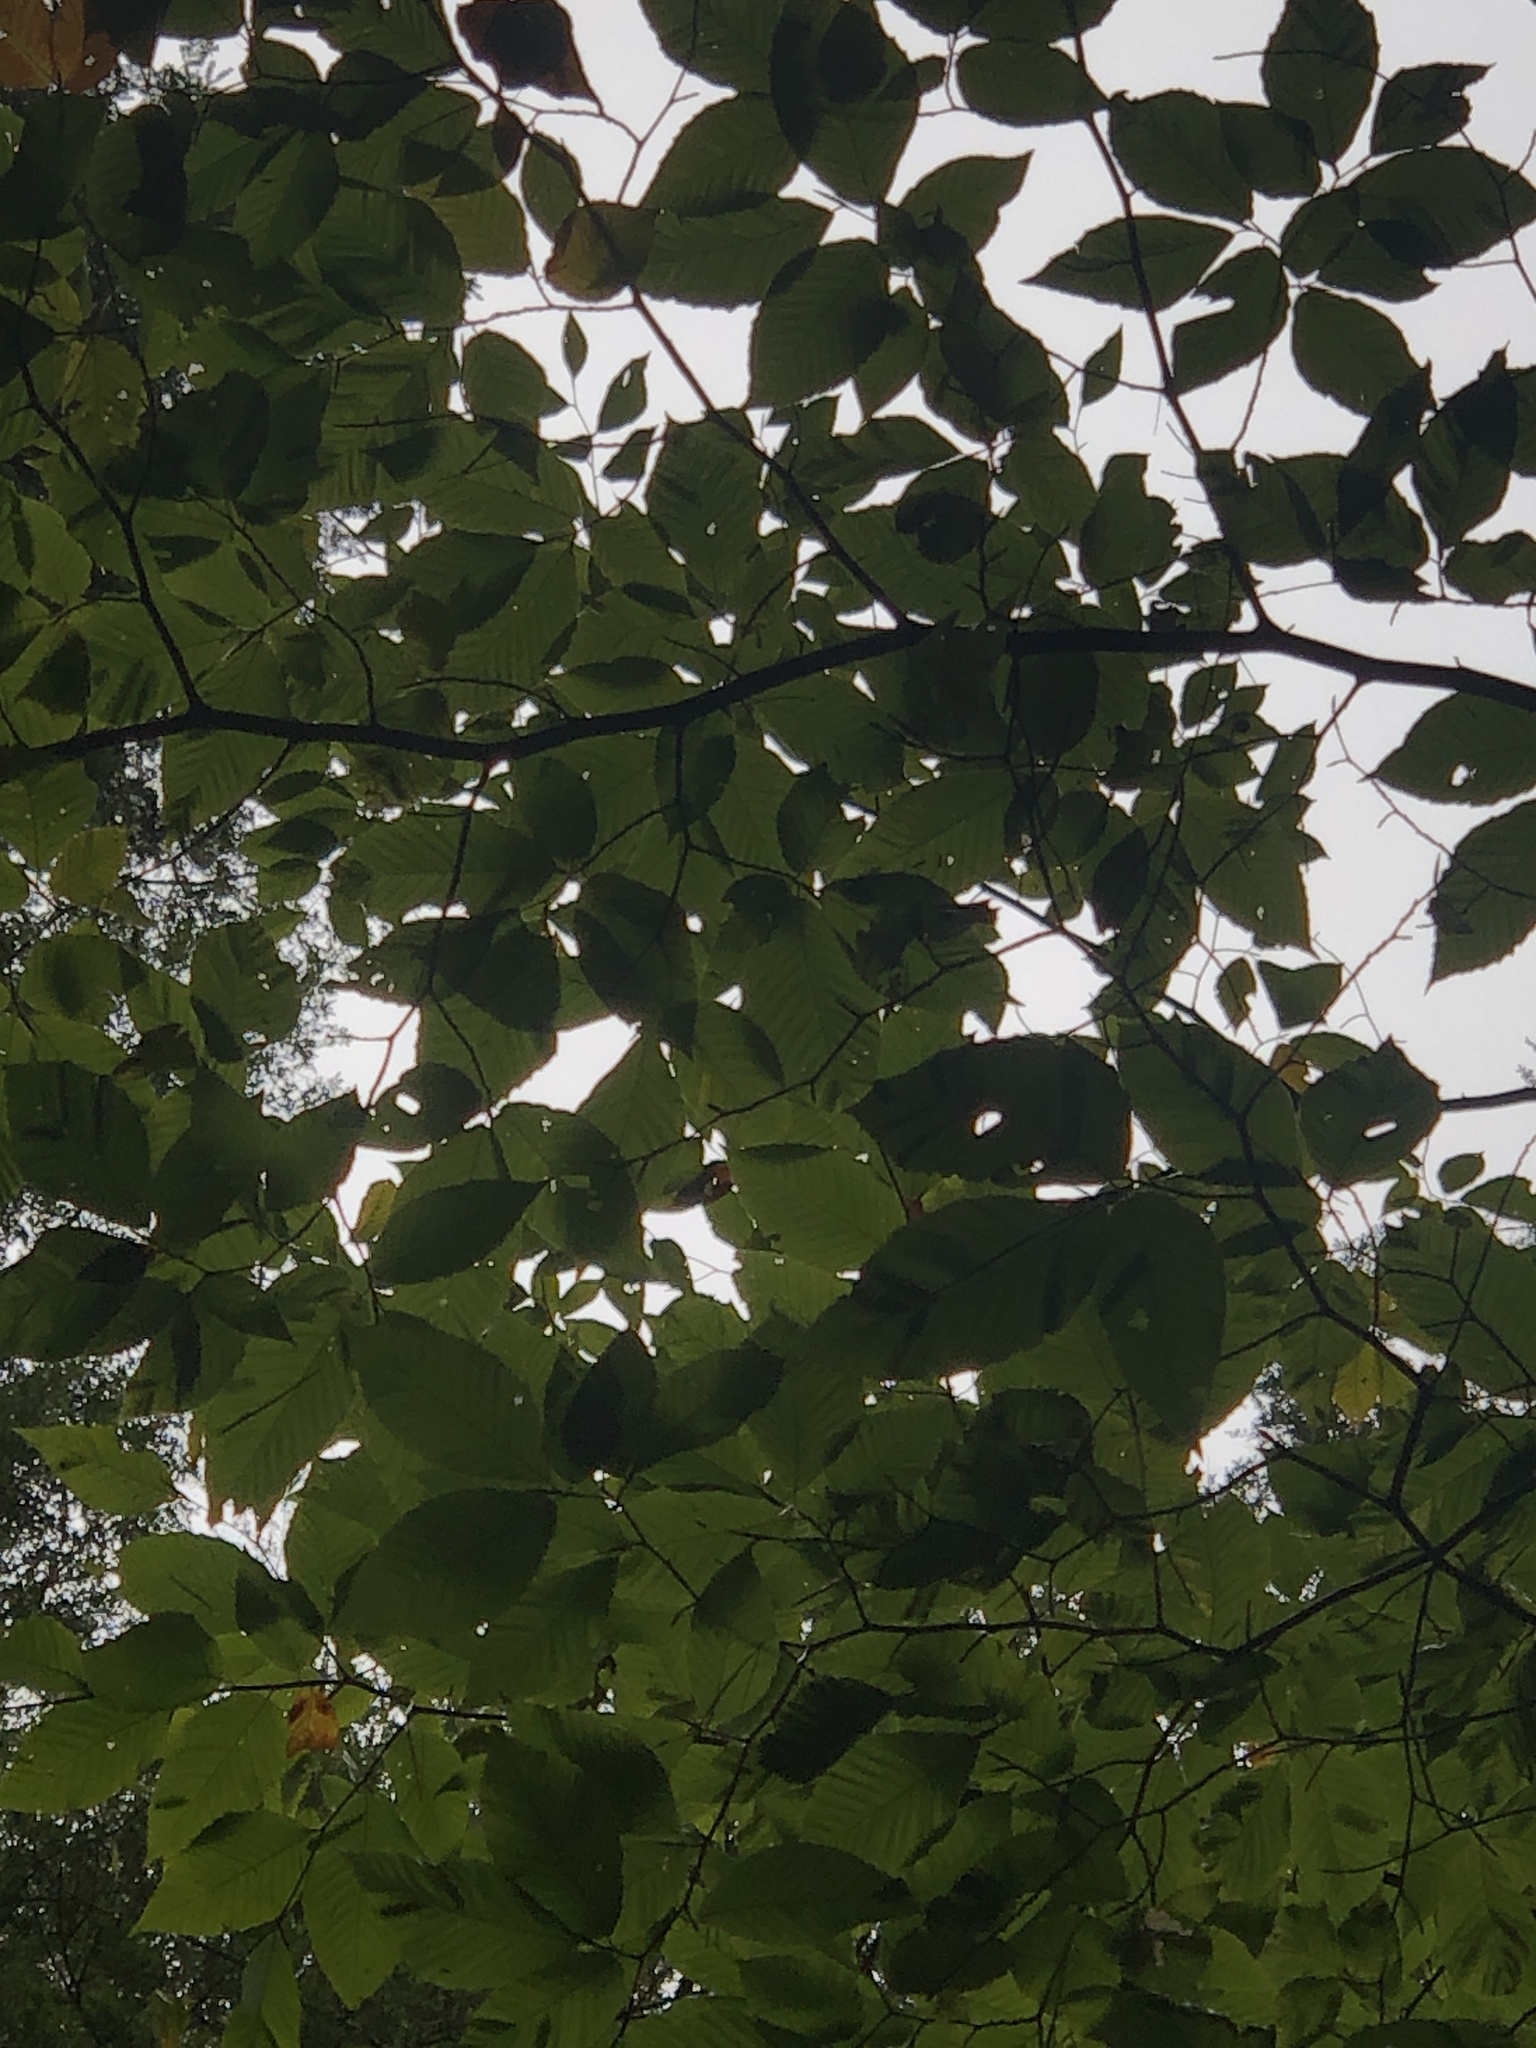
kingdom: Plantae
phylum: Tracheophyta
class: Magnoliopsida
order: Fagales
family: Fagaceae
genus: Fagus
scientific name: Fagus grandifolia
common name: American beech
